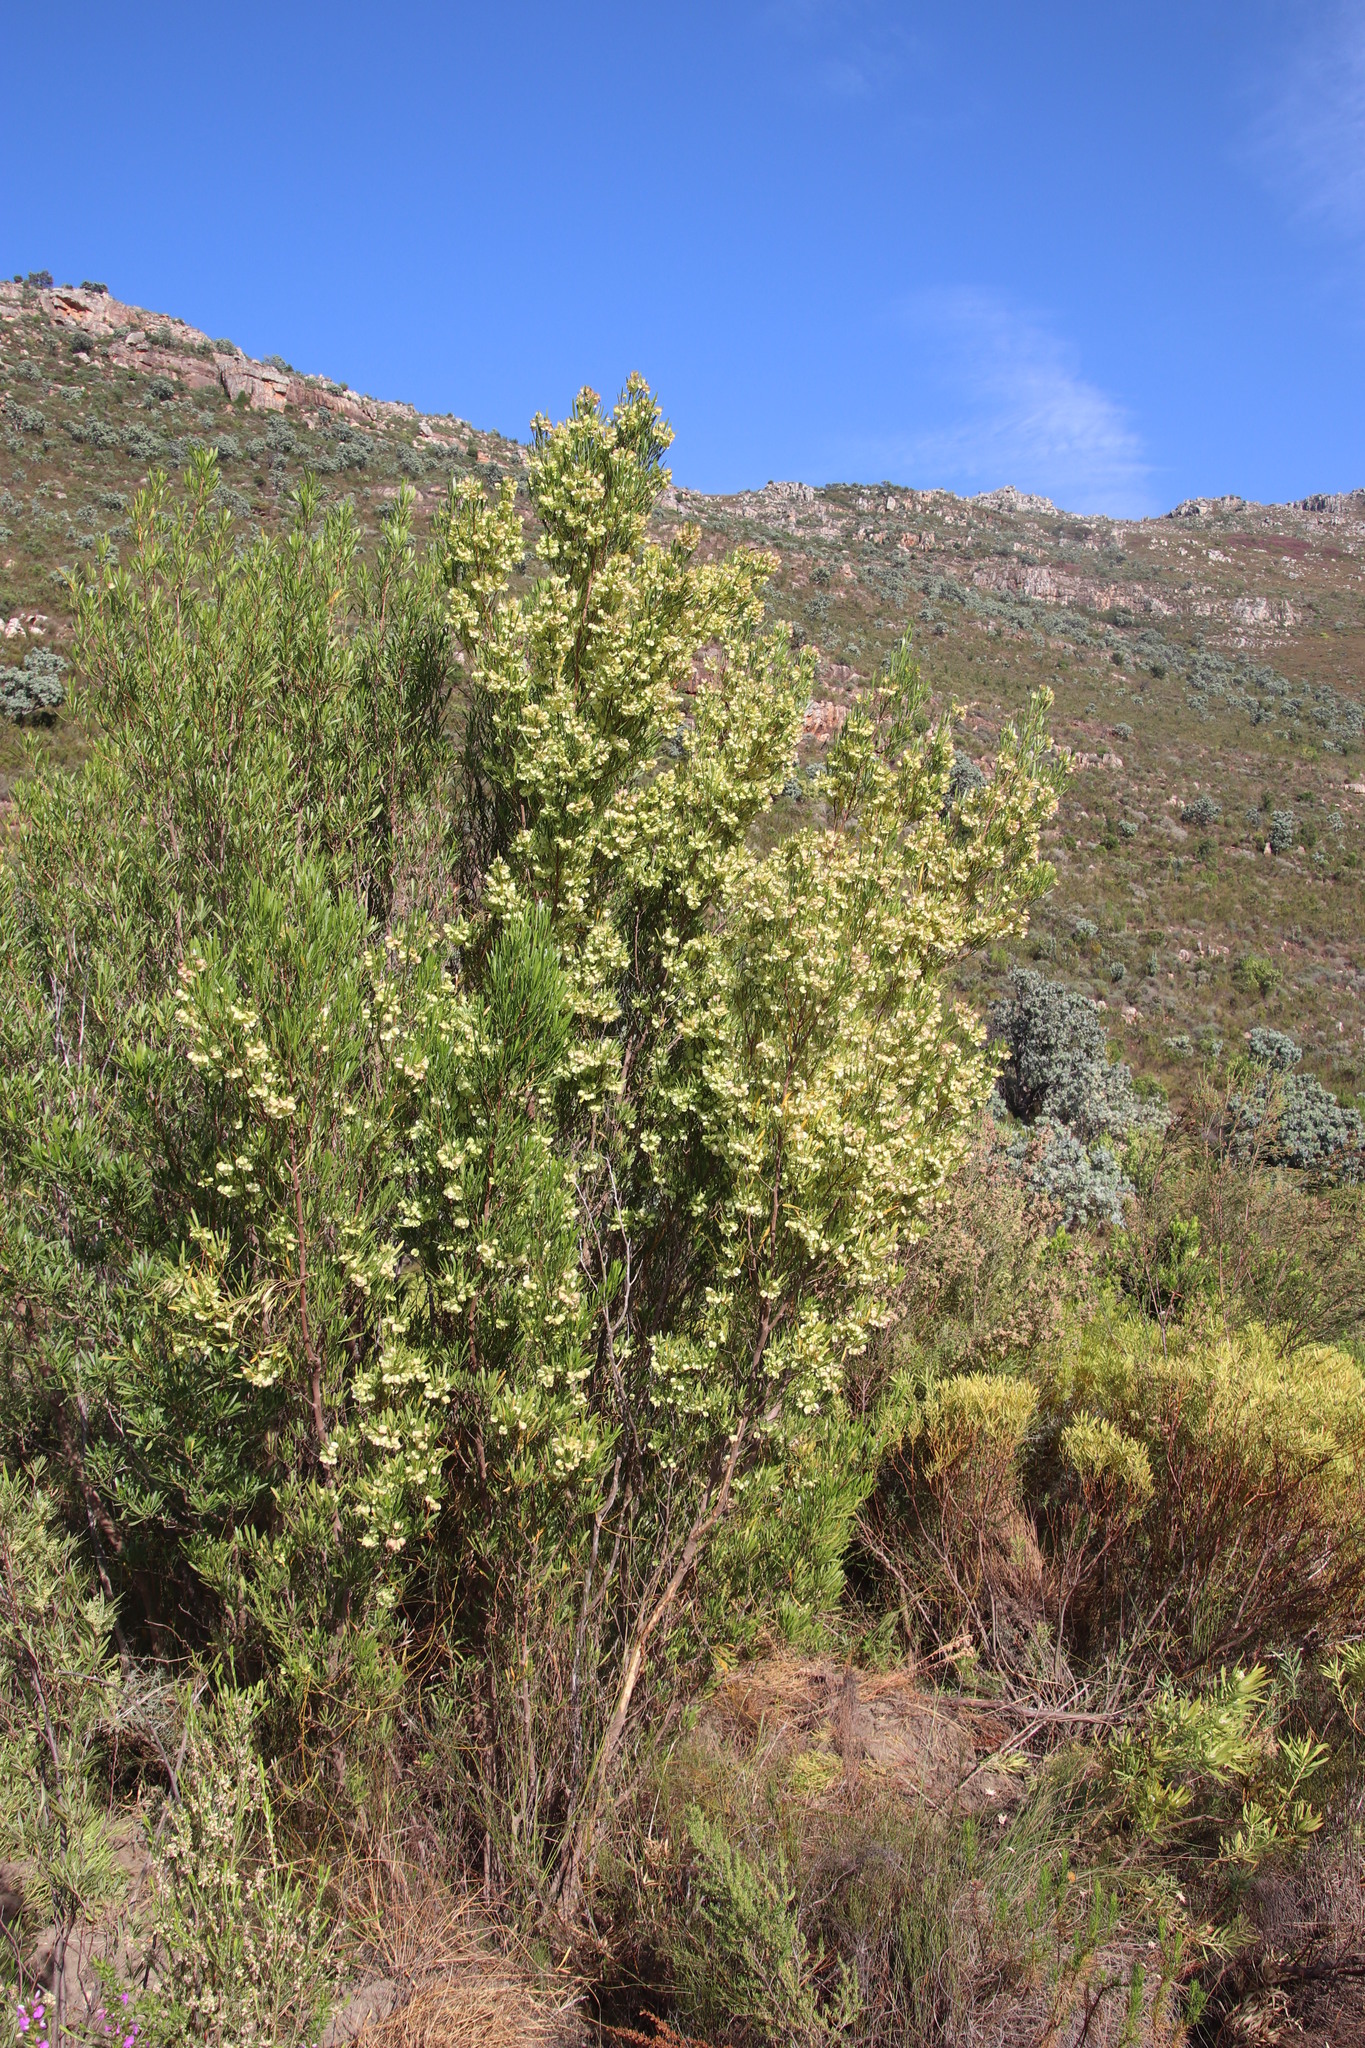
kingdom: Plantae
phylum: Tracheophyta
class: Magnoliopsida
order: Sapindales
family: Sapindaceae
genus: Dodonaea
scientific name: Dodonaea viscosa
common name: Hopbush
